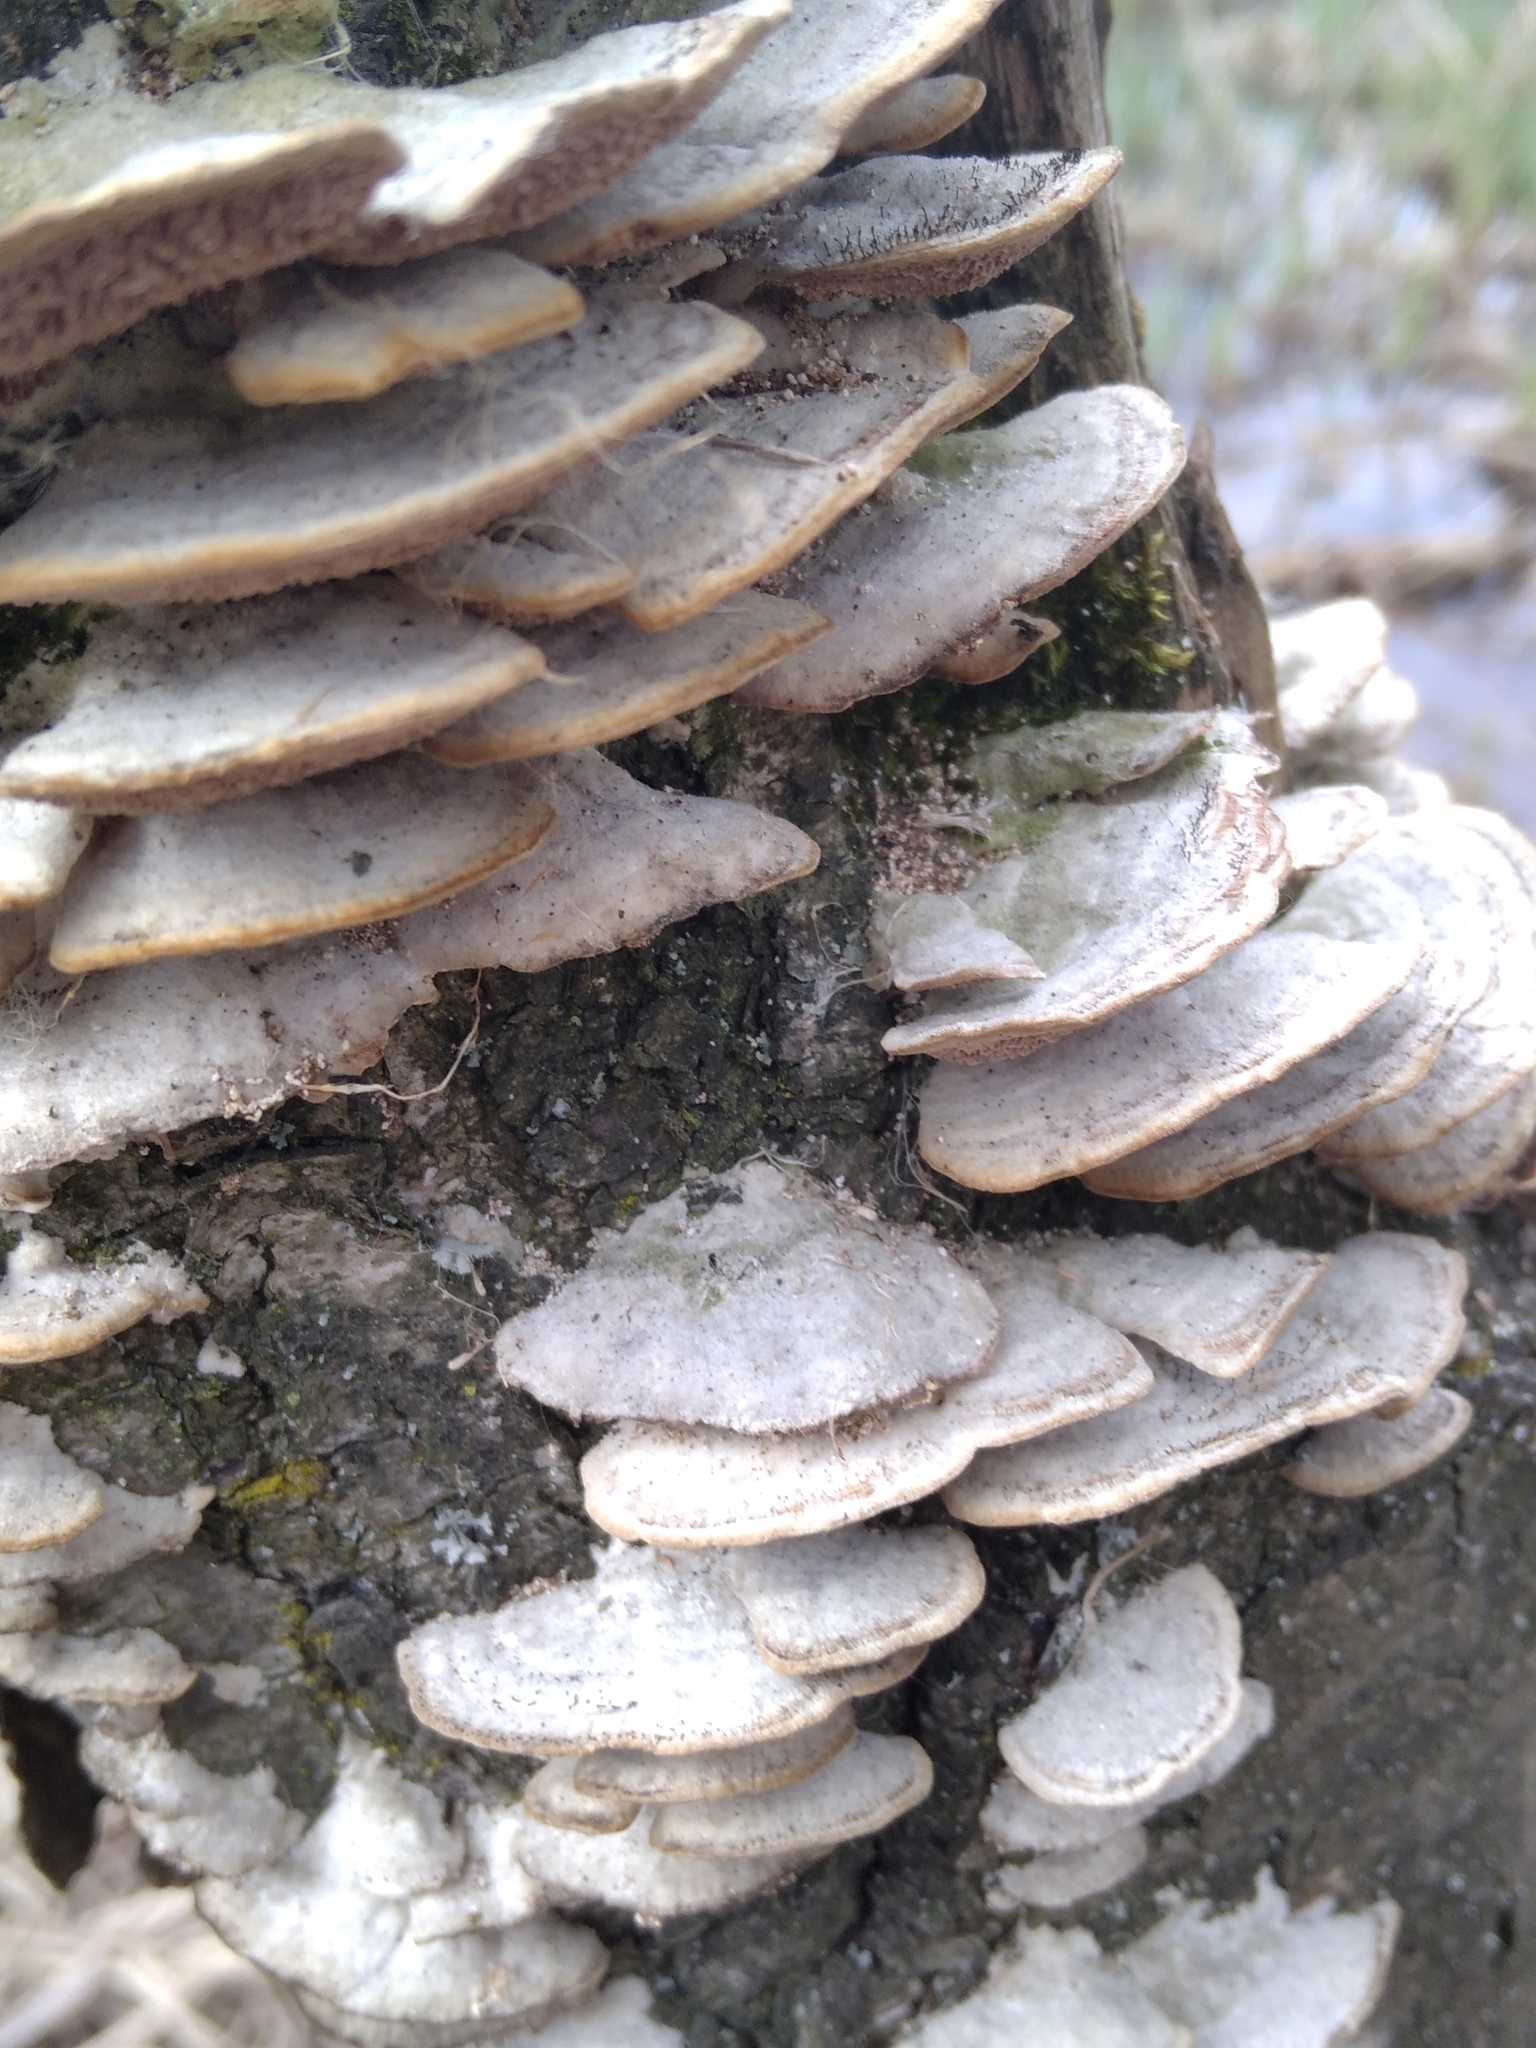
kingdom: Fungi
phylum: Basidiomycota
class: Agaricomycetes
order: Hymenochaetales
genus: Trichaptum
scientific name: Trichaptum biforme
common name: Violet-toothed polypore
